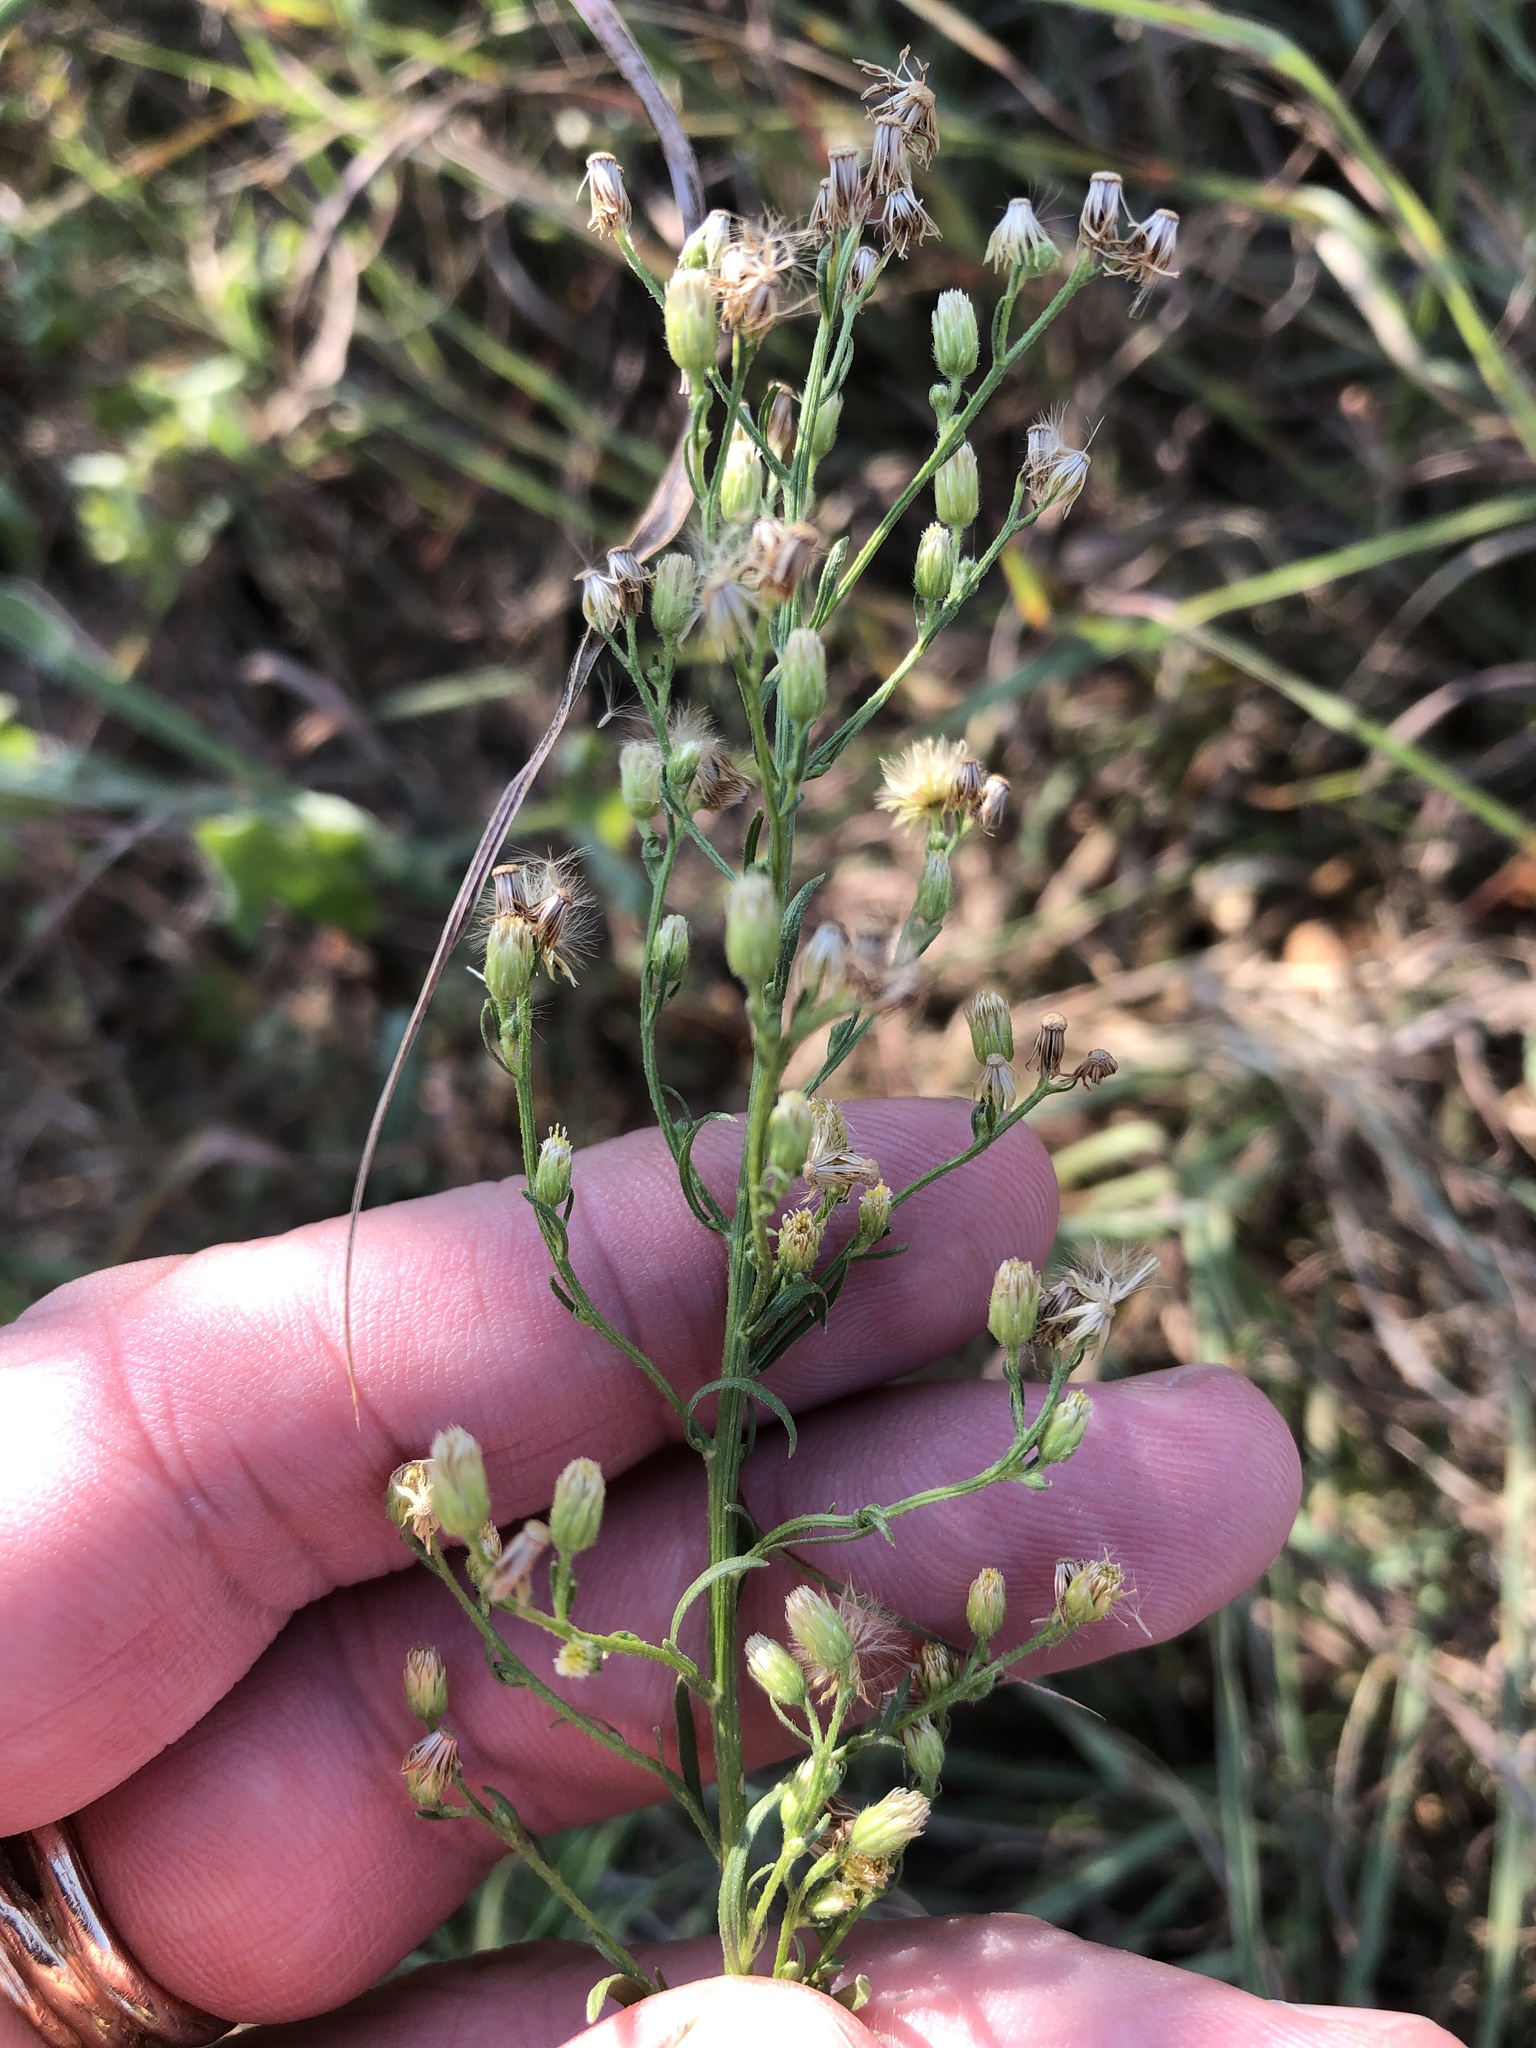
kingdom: Plantae
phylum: Tracheophyta
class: Magnoliopsida
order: Asterales
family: Asteraceae
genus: Erigeron
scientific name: Erigeron canadensis
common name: Canadian fleabane
